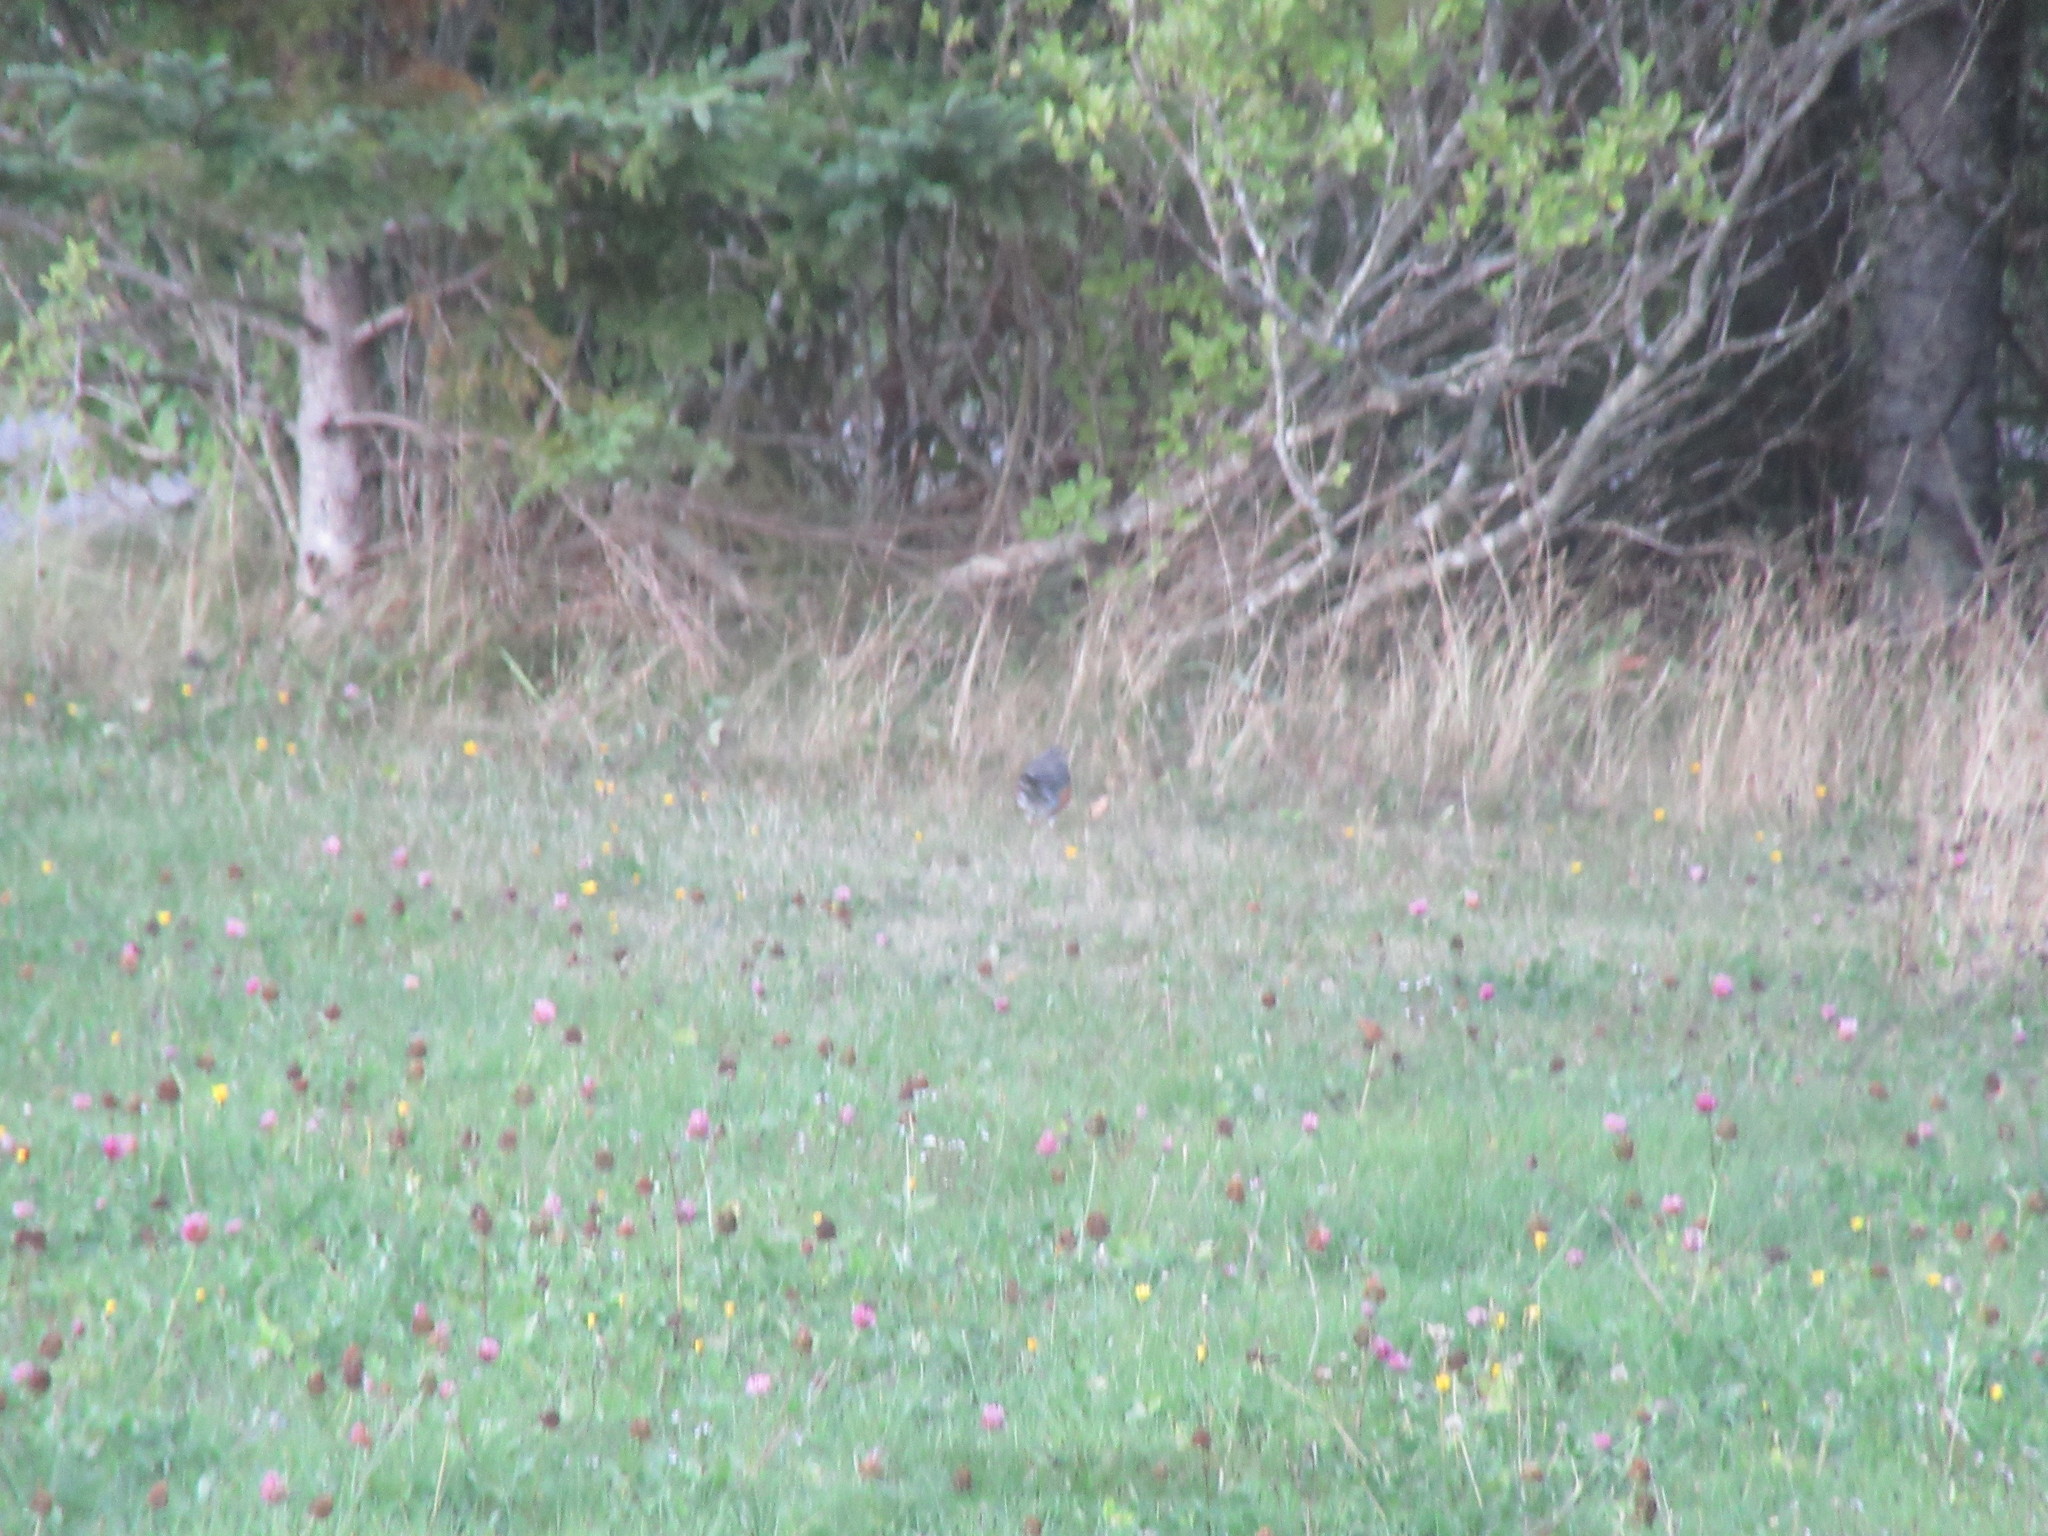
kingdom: Animalia
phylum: Chordata
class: Aves
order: Passeriformes
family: Turdidae
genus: Turdus
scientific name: Turdus migratorius
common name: American robin
